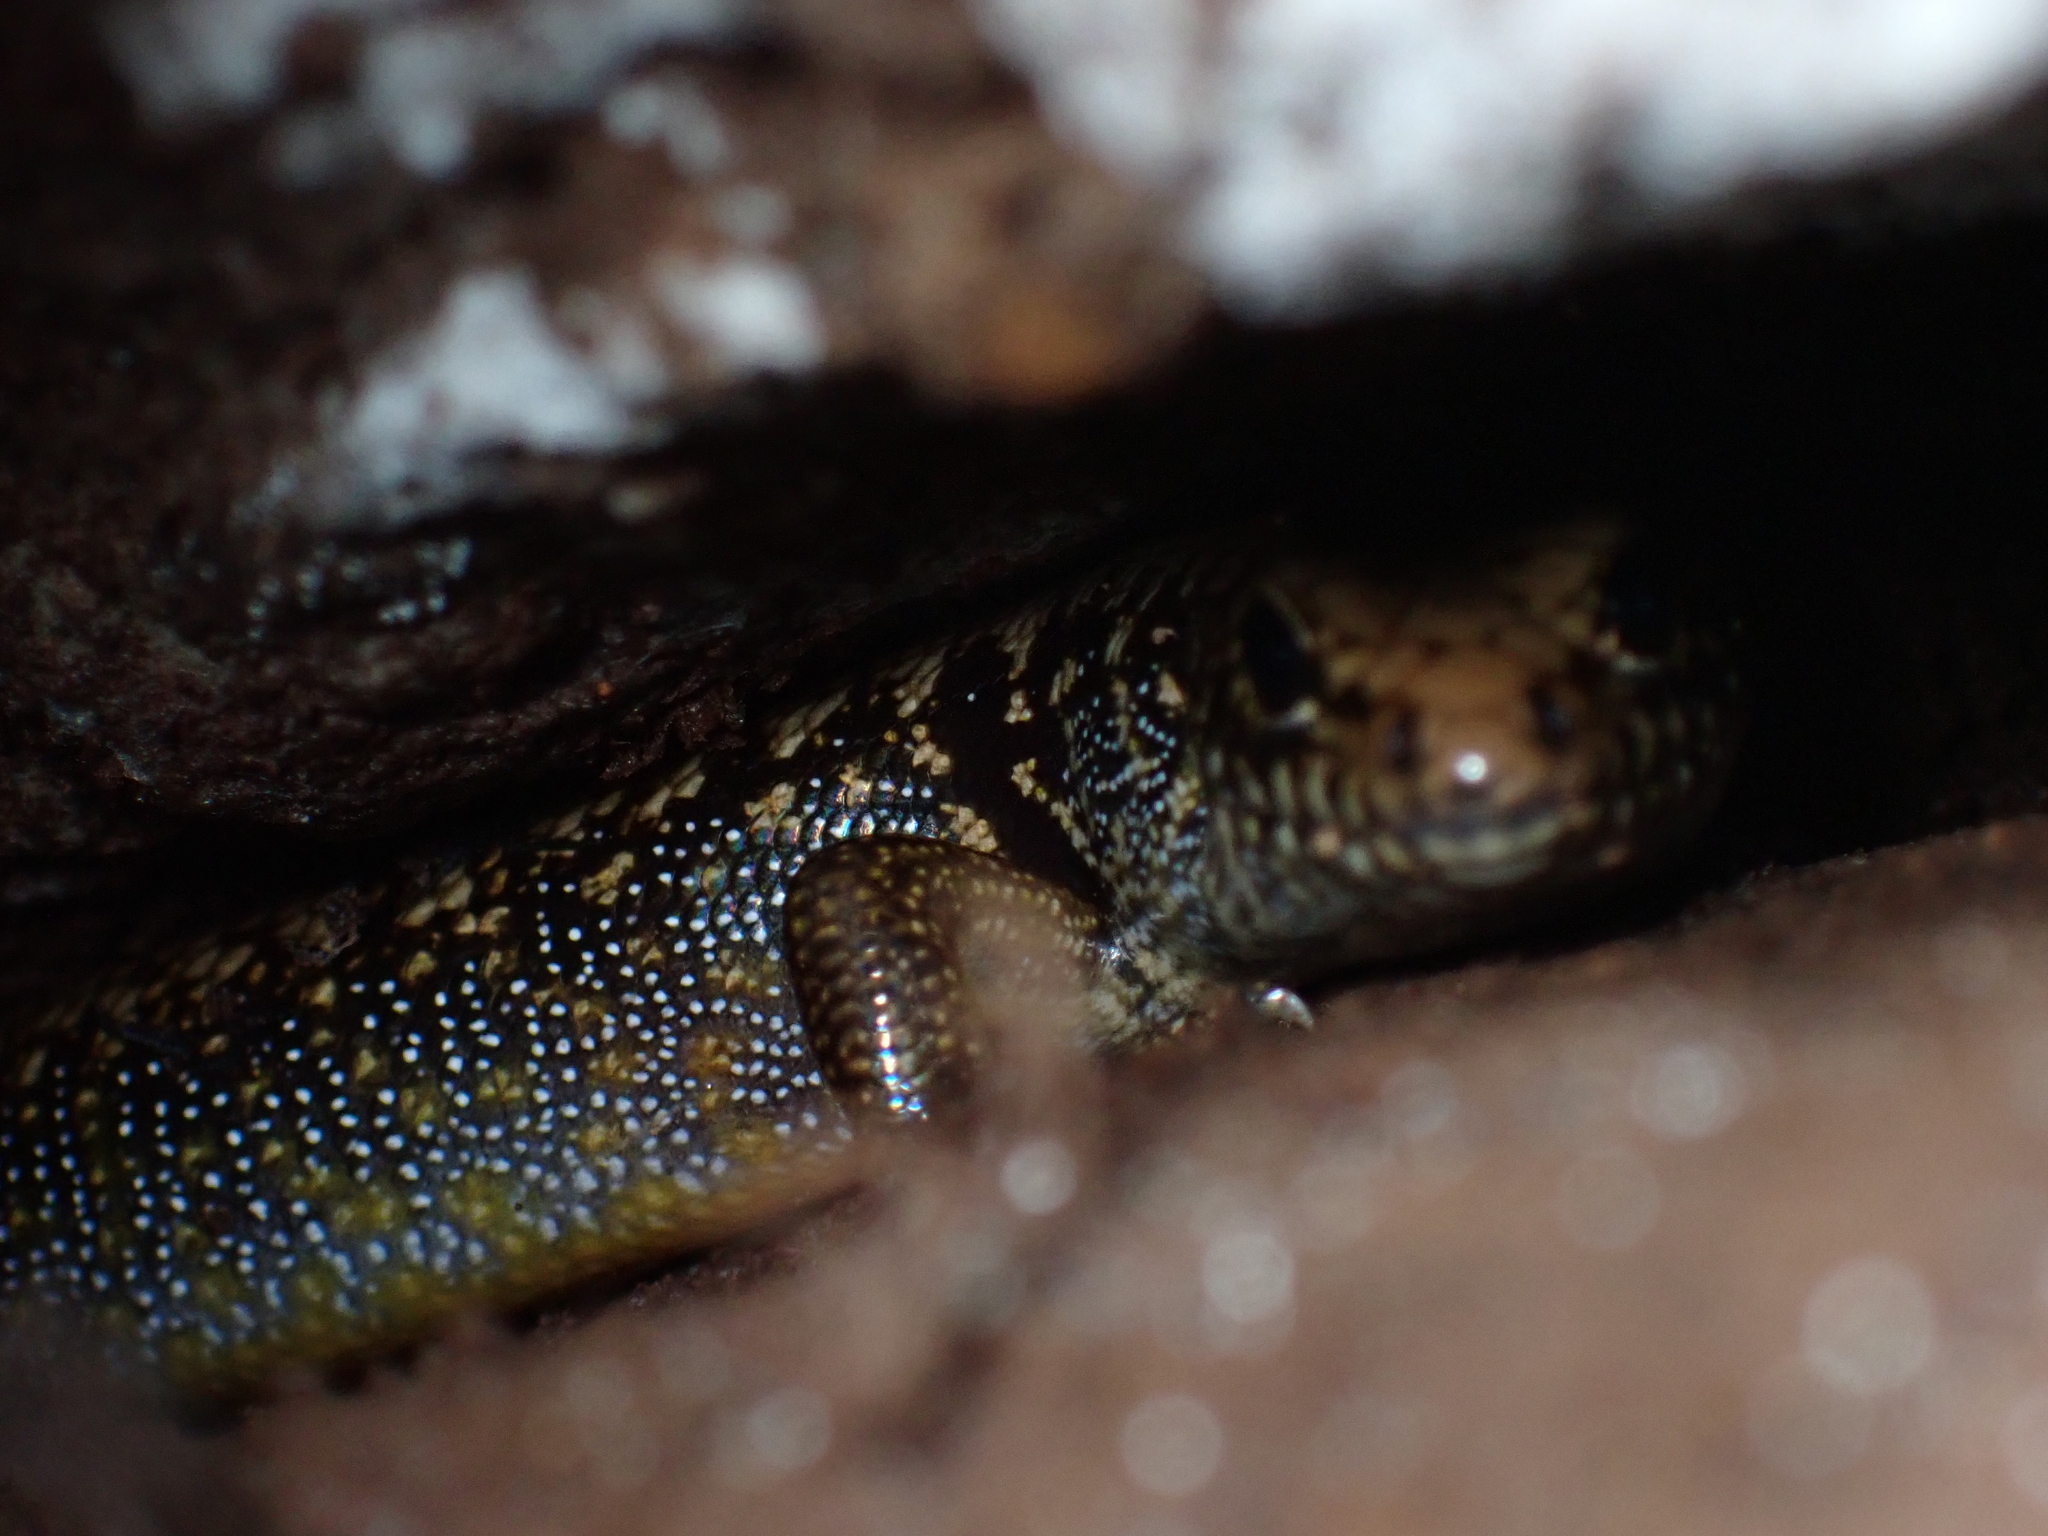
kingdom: Animalia
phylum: Chordata
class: Squamata
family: Scincidae
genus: Silvascincus
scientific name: Silvascincus murrayi
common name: Blue-speckled forest-skink
